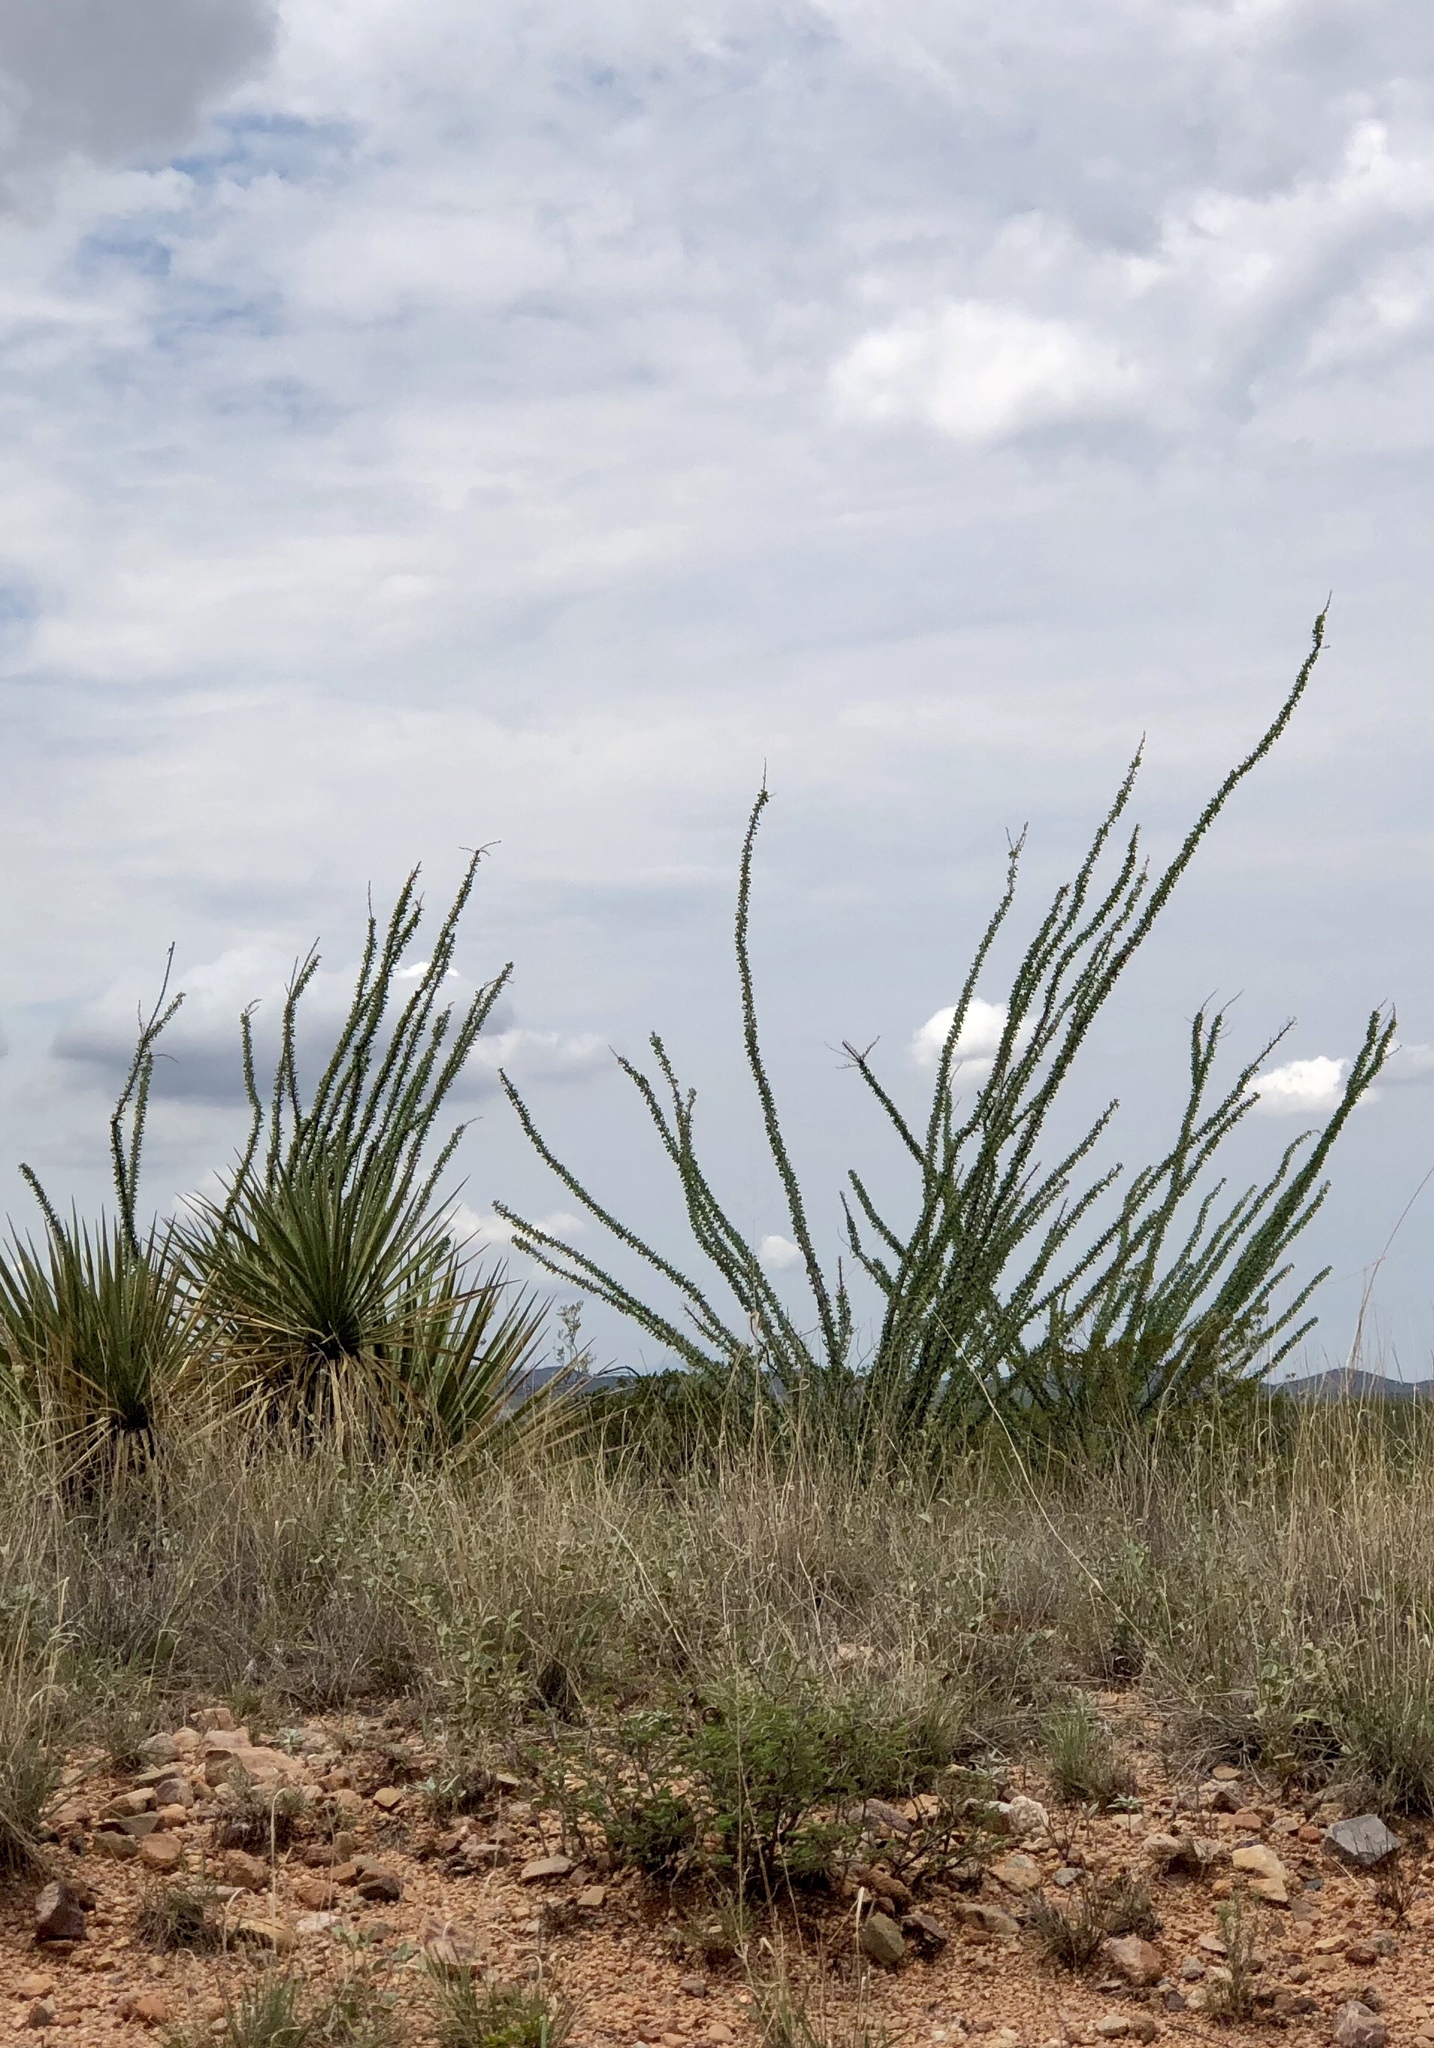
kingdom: Plantae
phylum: Tracheophyta
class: Magnoliopsida
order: Ericales
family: Fouquieriaceae
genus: Fouquieria
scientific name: Fouquieria splendens
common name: Vine-cactus
